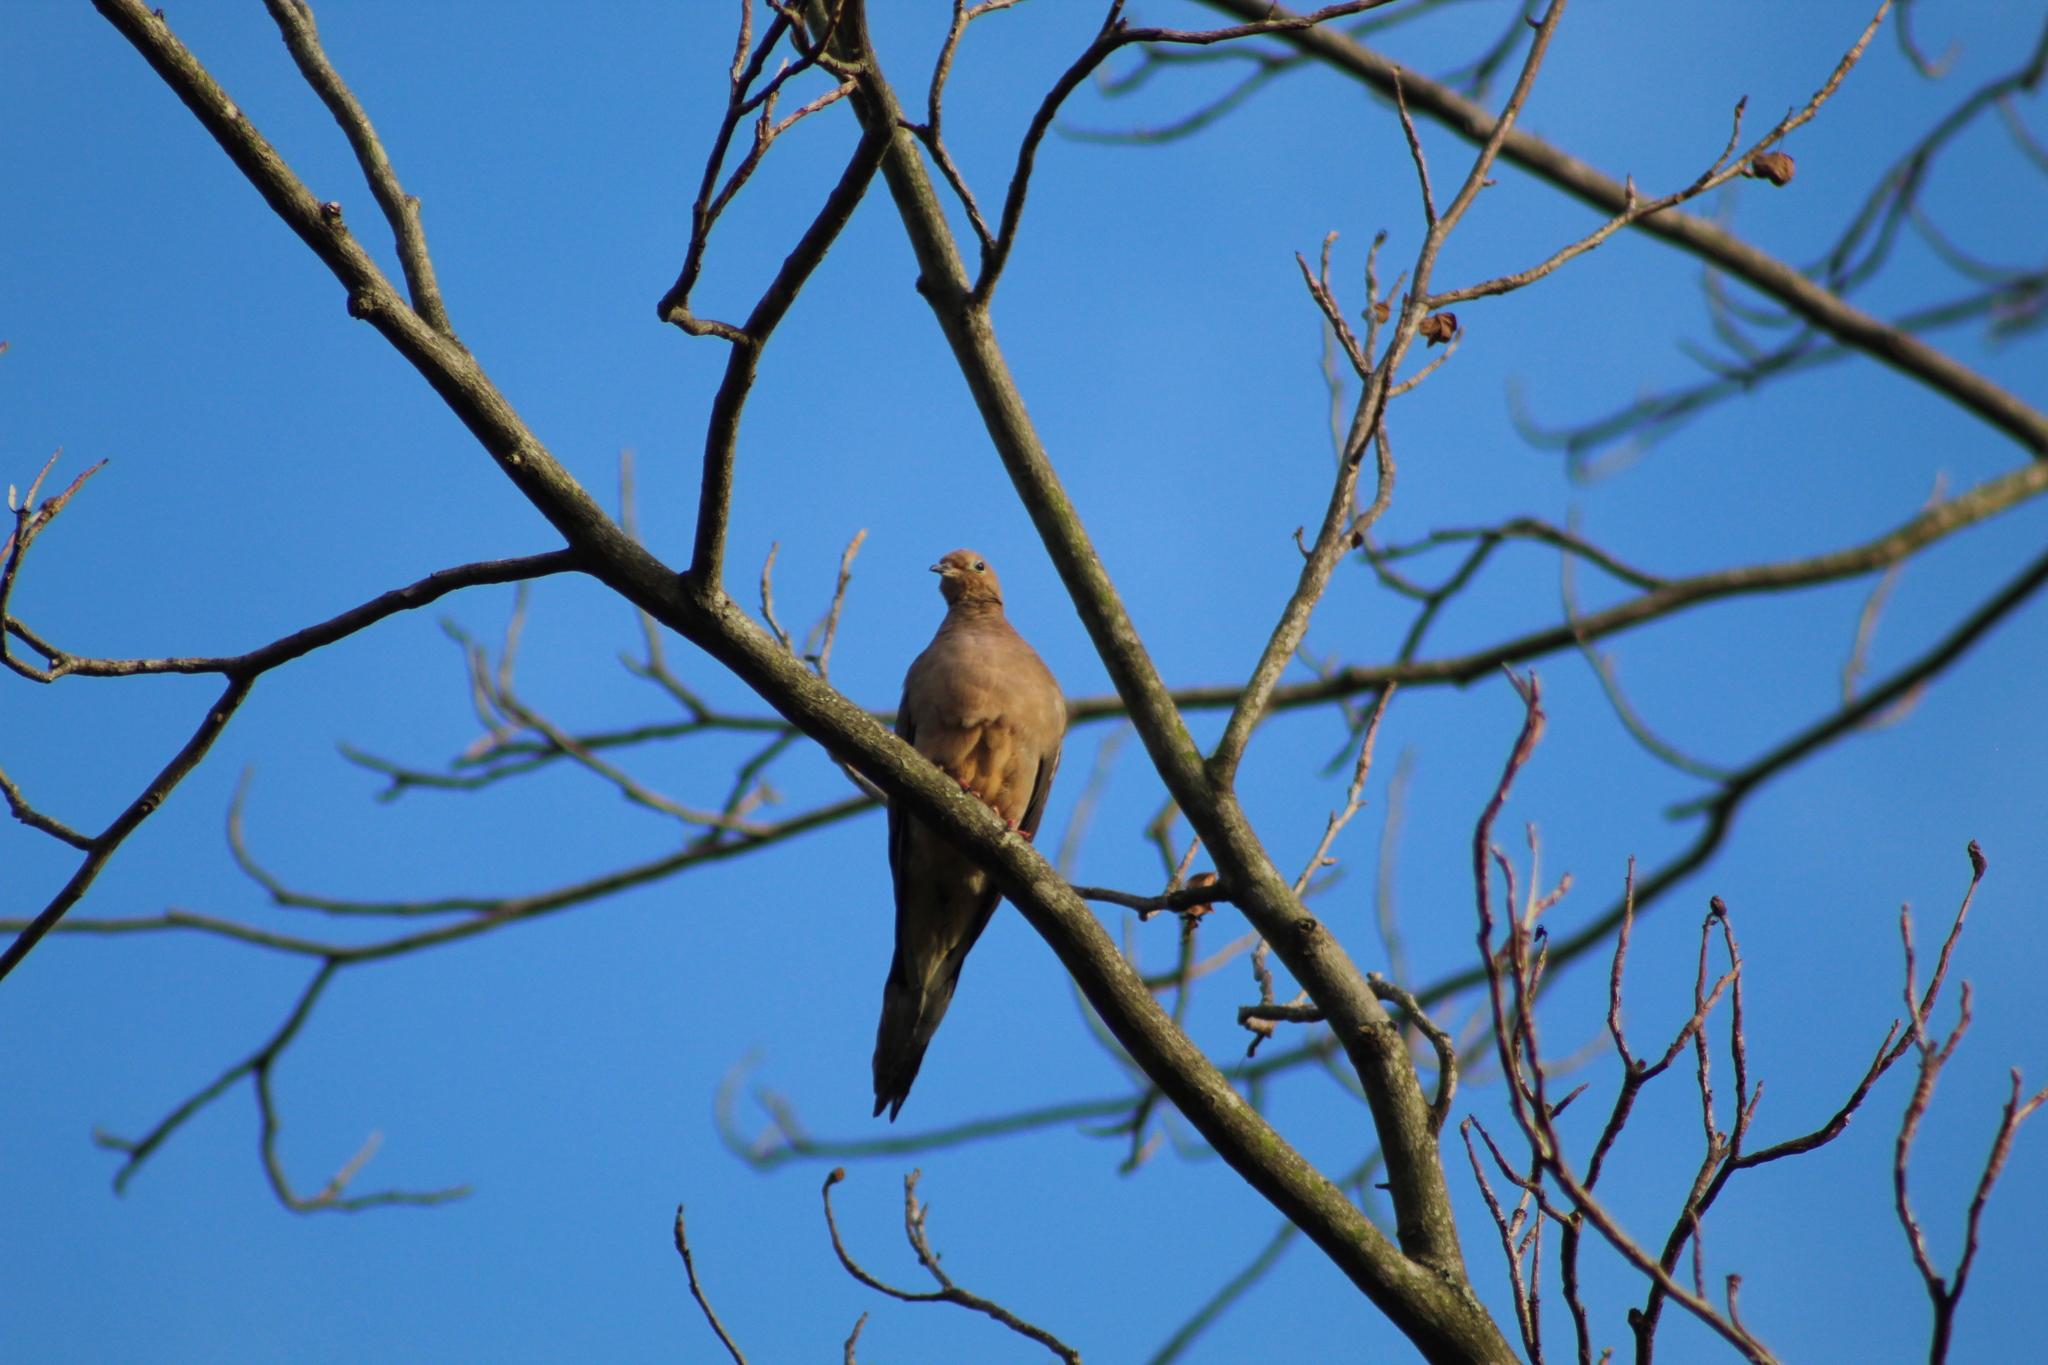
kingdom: Animalia
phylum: Chordata
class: Aves
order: Columbiformes
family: Columbidae
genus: Zenaida
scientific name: Zenaida macroura
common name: Mourning dove
